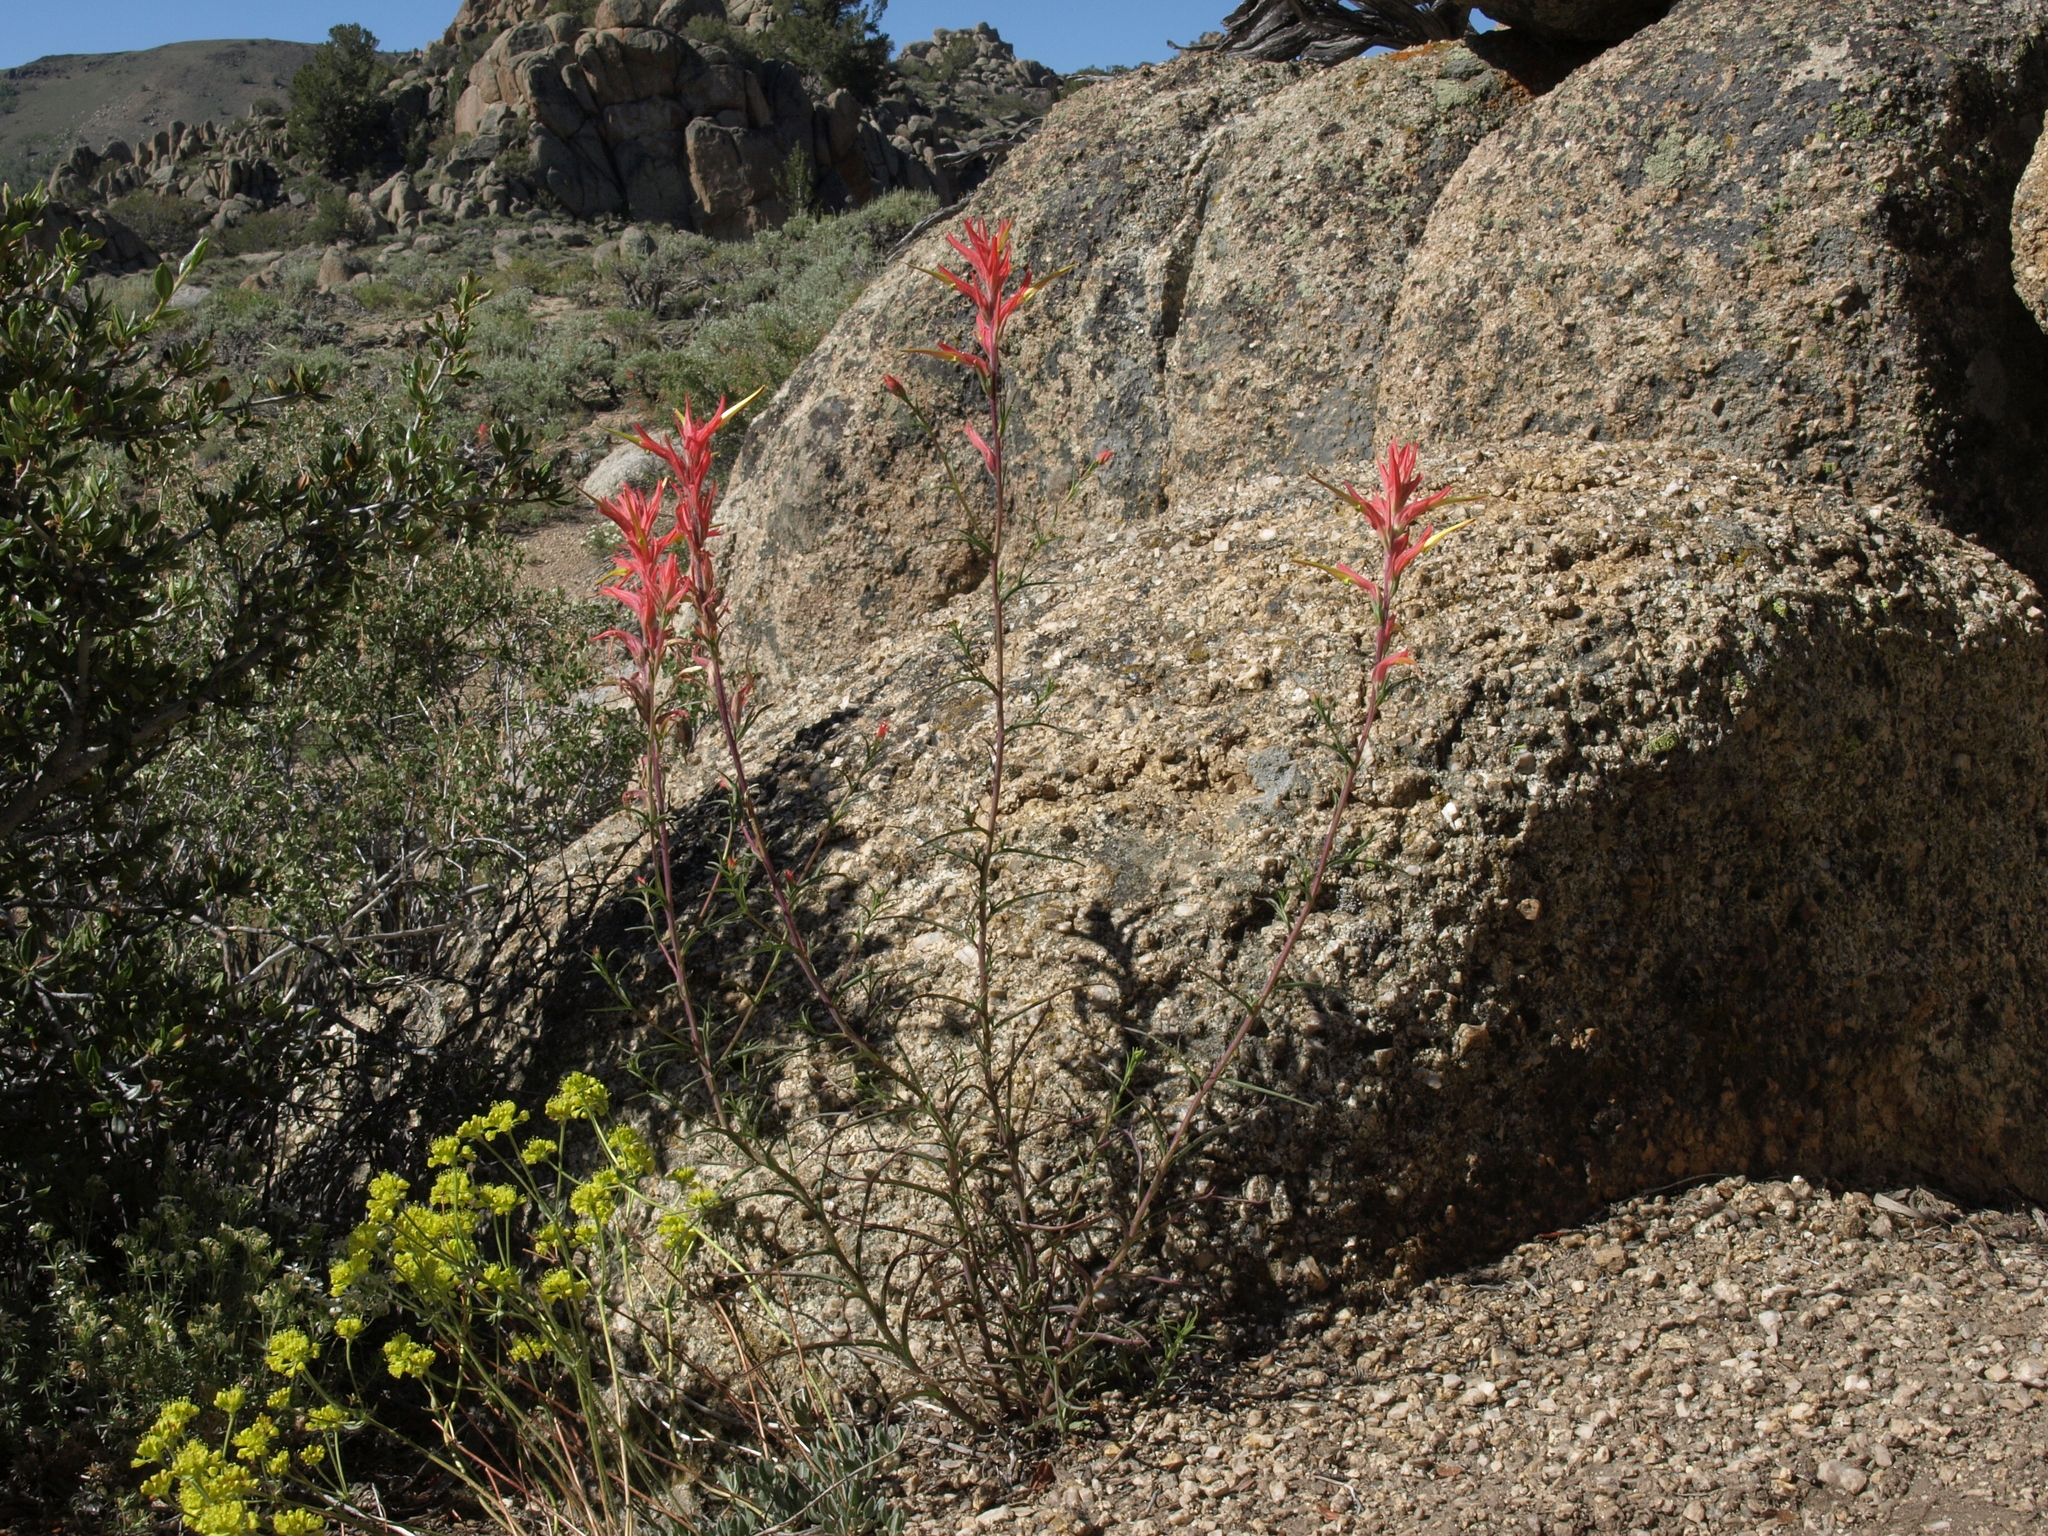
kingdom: Plantae
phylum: Tracheophyta
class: Magnoliopsida
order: Lamiales
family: Orobanchaceae
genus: Castilleja
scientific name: Castilleja linariifolia
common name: Wyoming paintbrush
